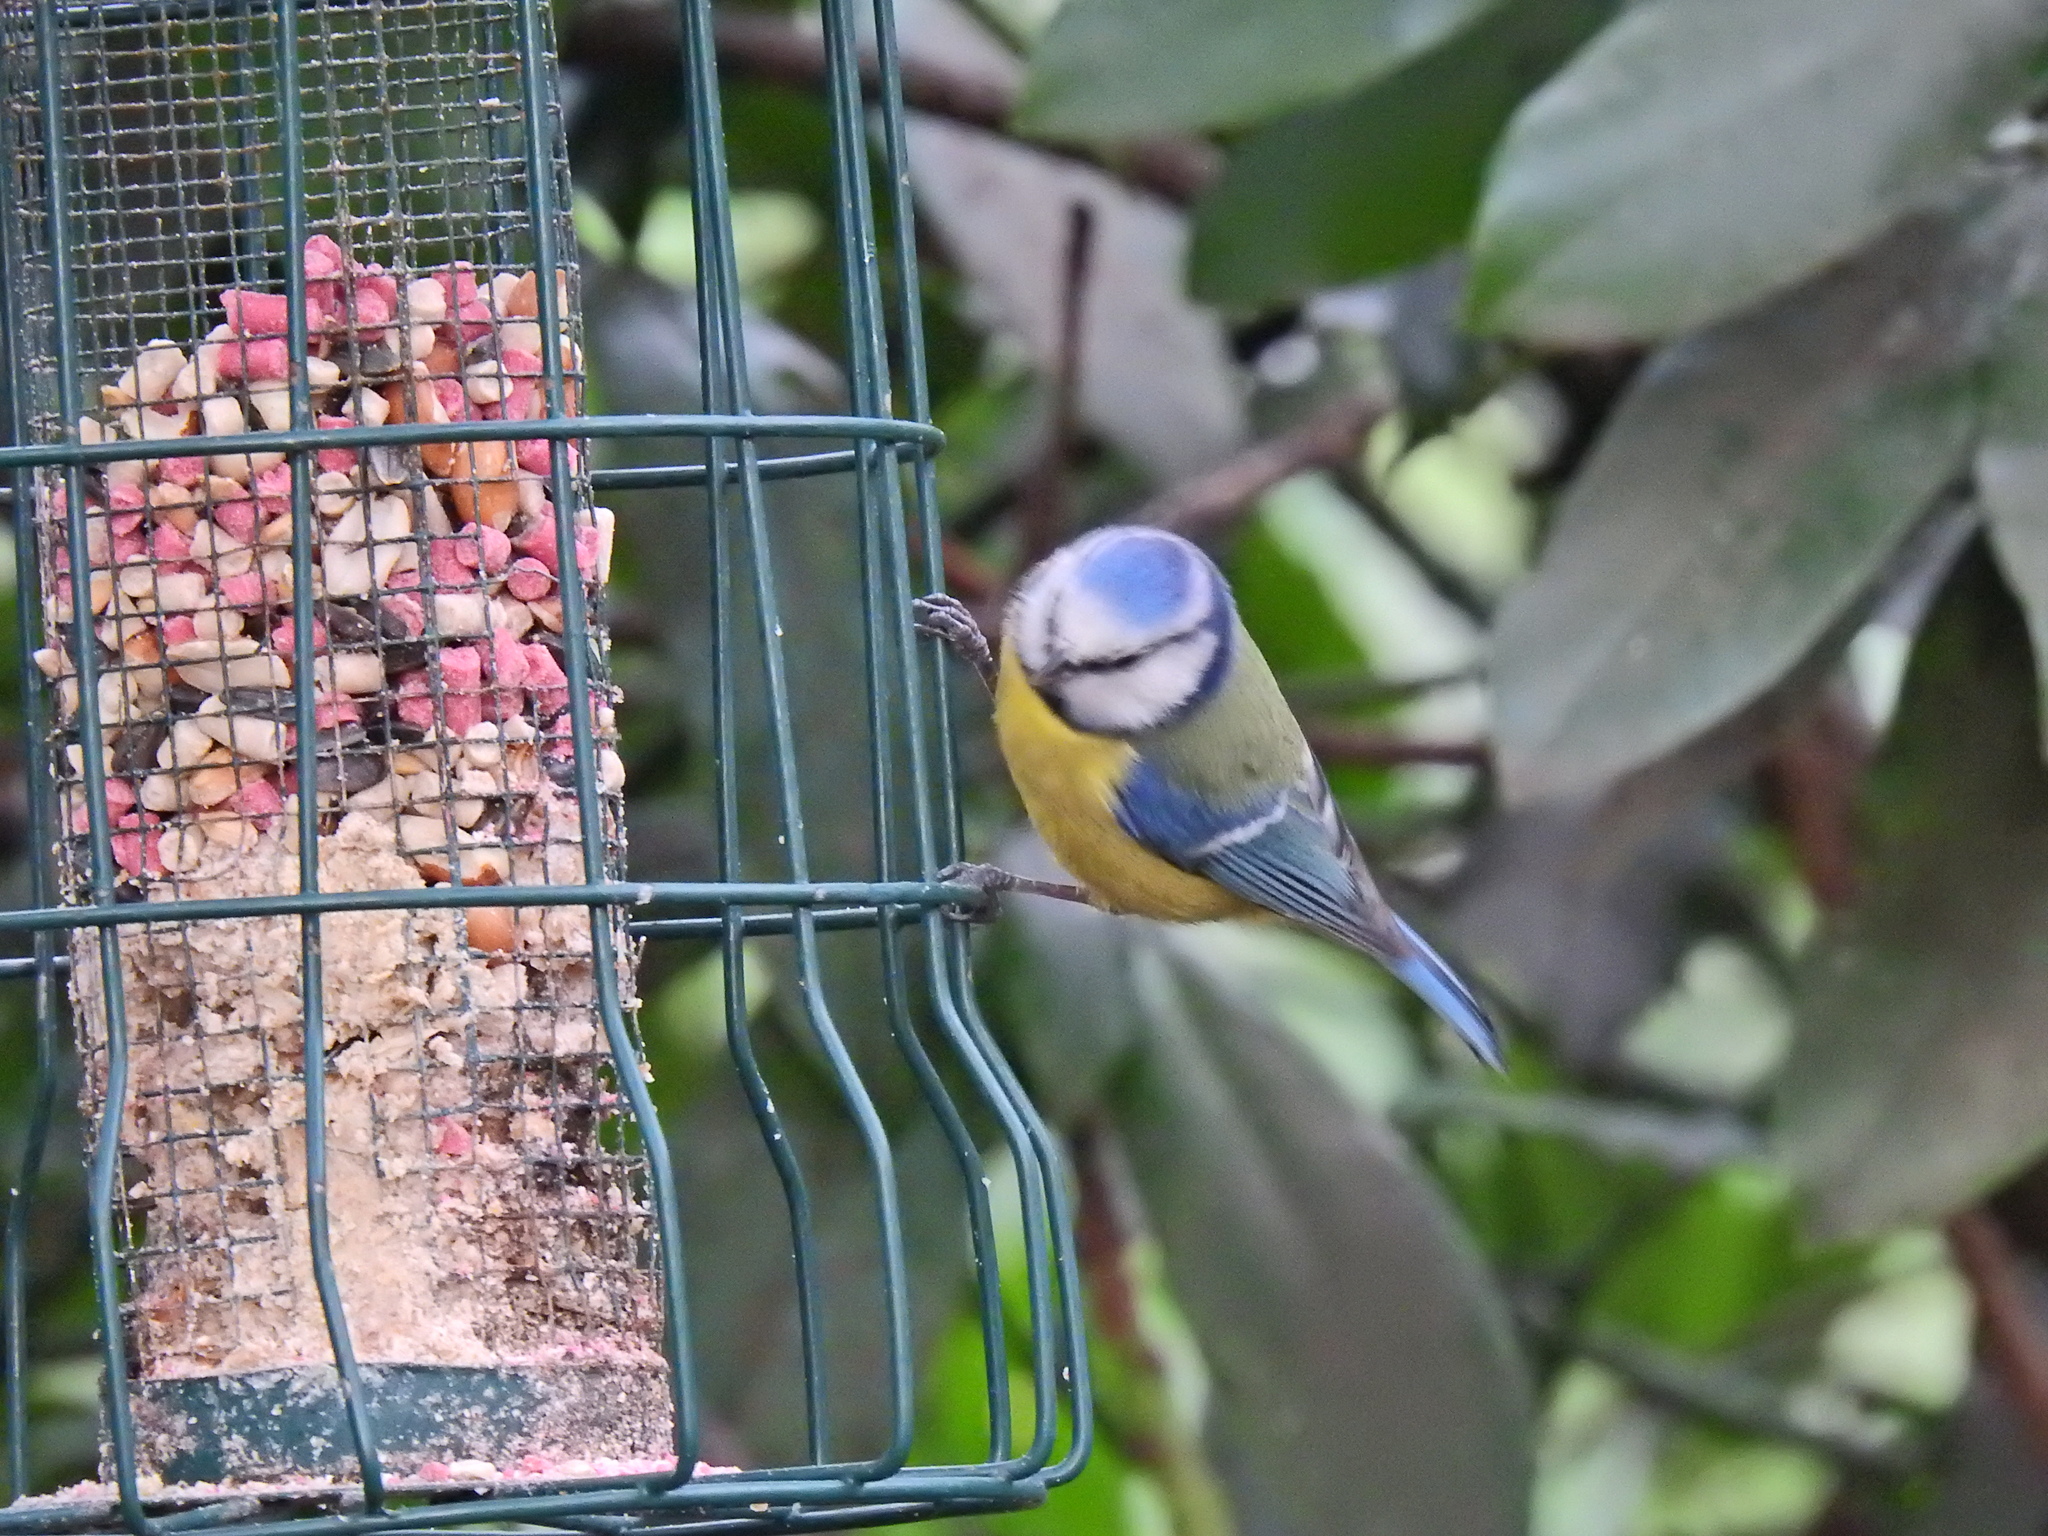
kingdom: Animalia
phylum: Chordata
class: Aves
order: Passeriformes
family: Paridae
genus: Cyanistes
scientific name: Cyanistes caeruleus
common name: Eurasian blue tit
